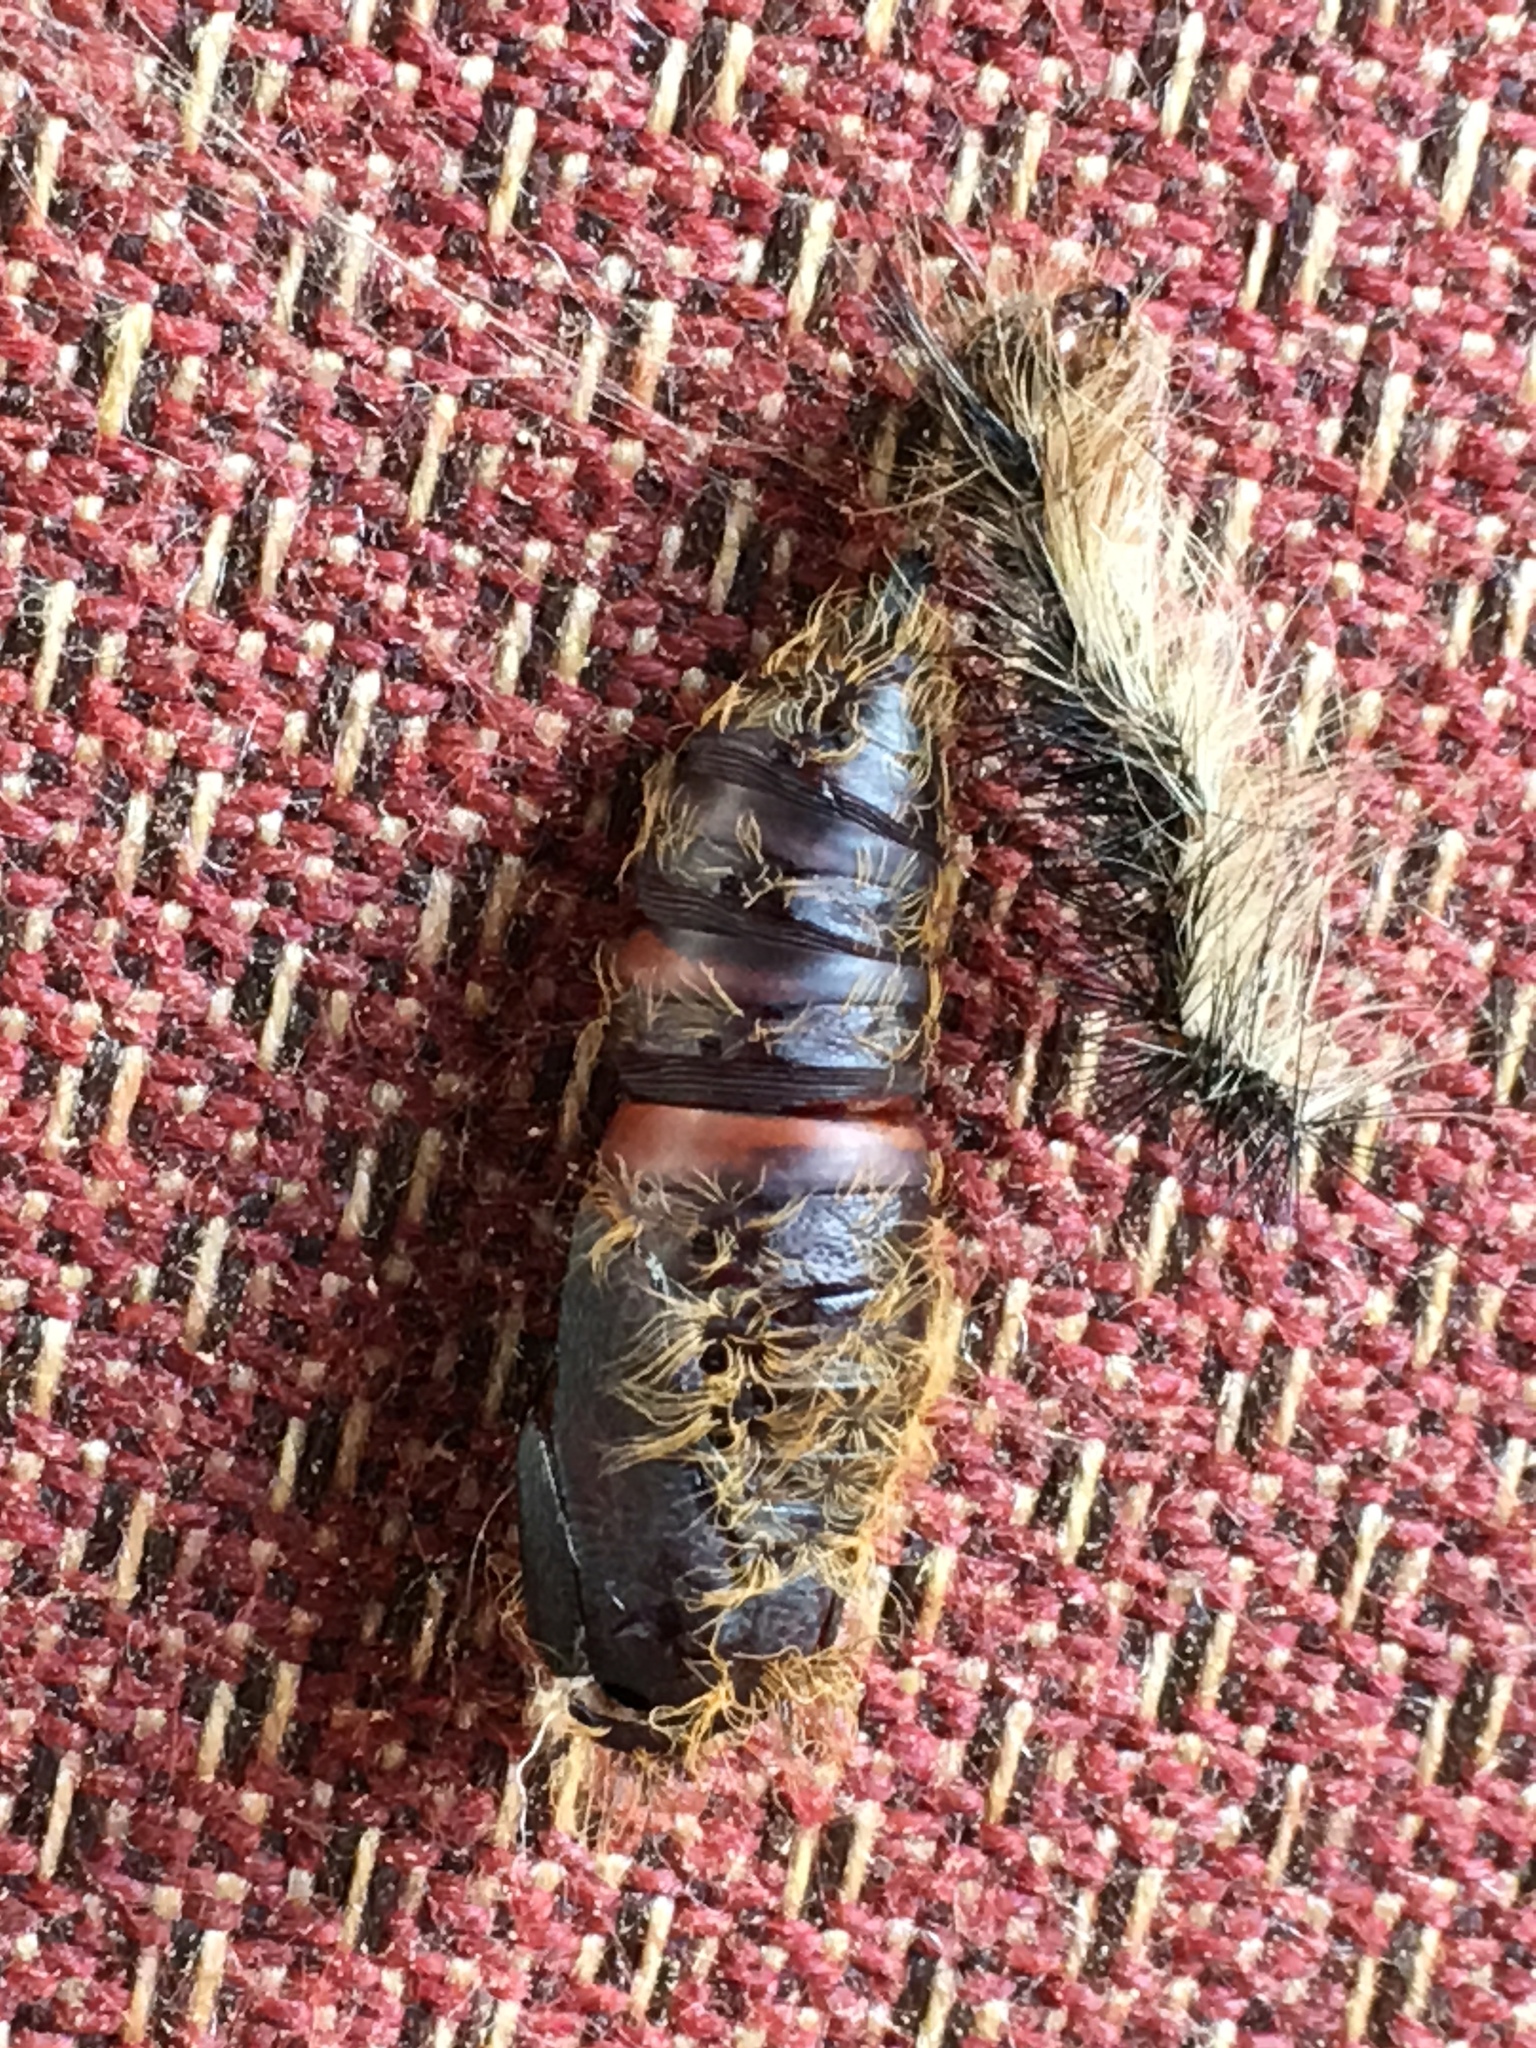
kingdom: Animalia
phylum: Arthropoda
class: Insecta
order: Lepidoptera
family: Erebidae
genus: Lymantria
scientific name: Lymantria dispar
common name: Gypsy moth
